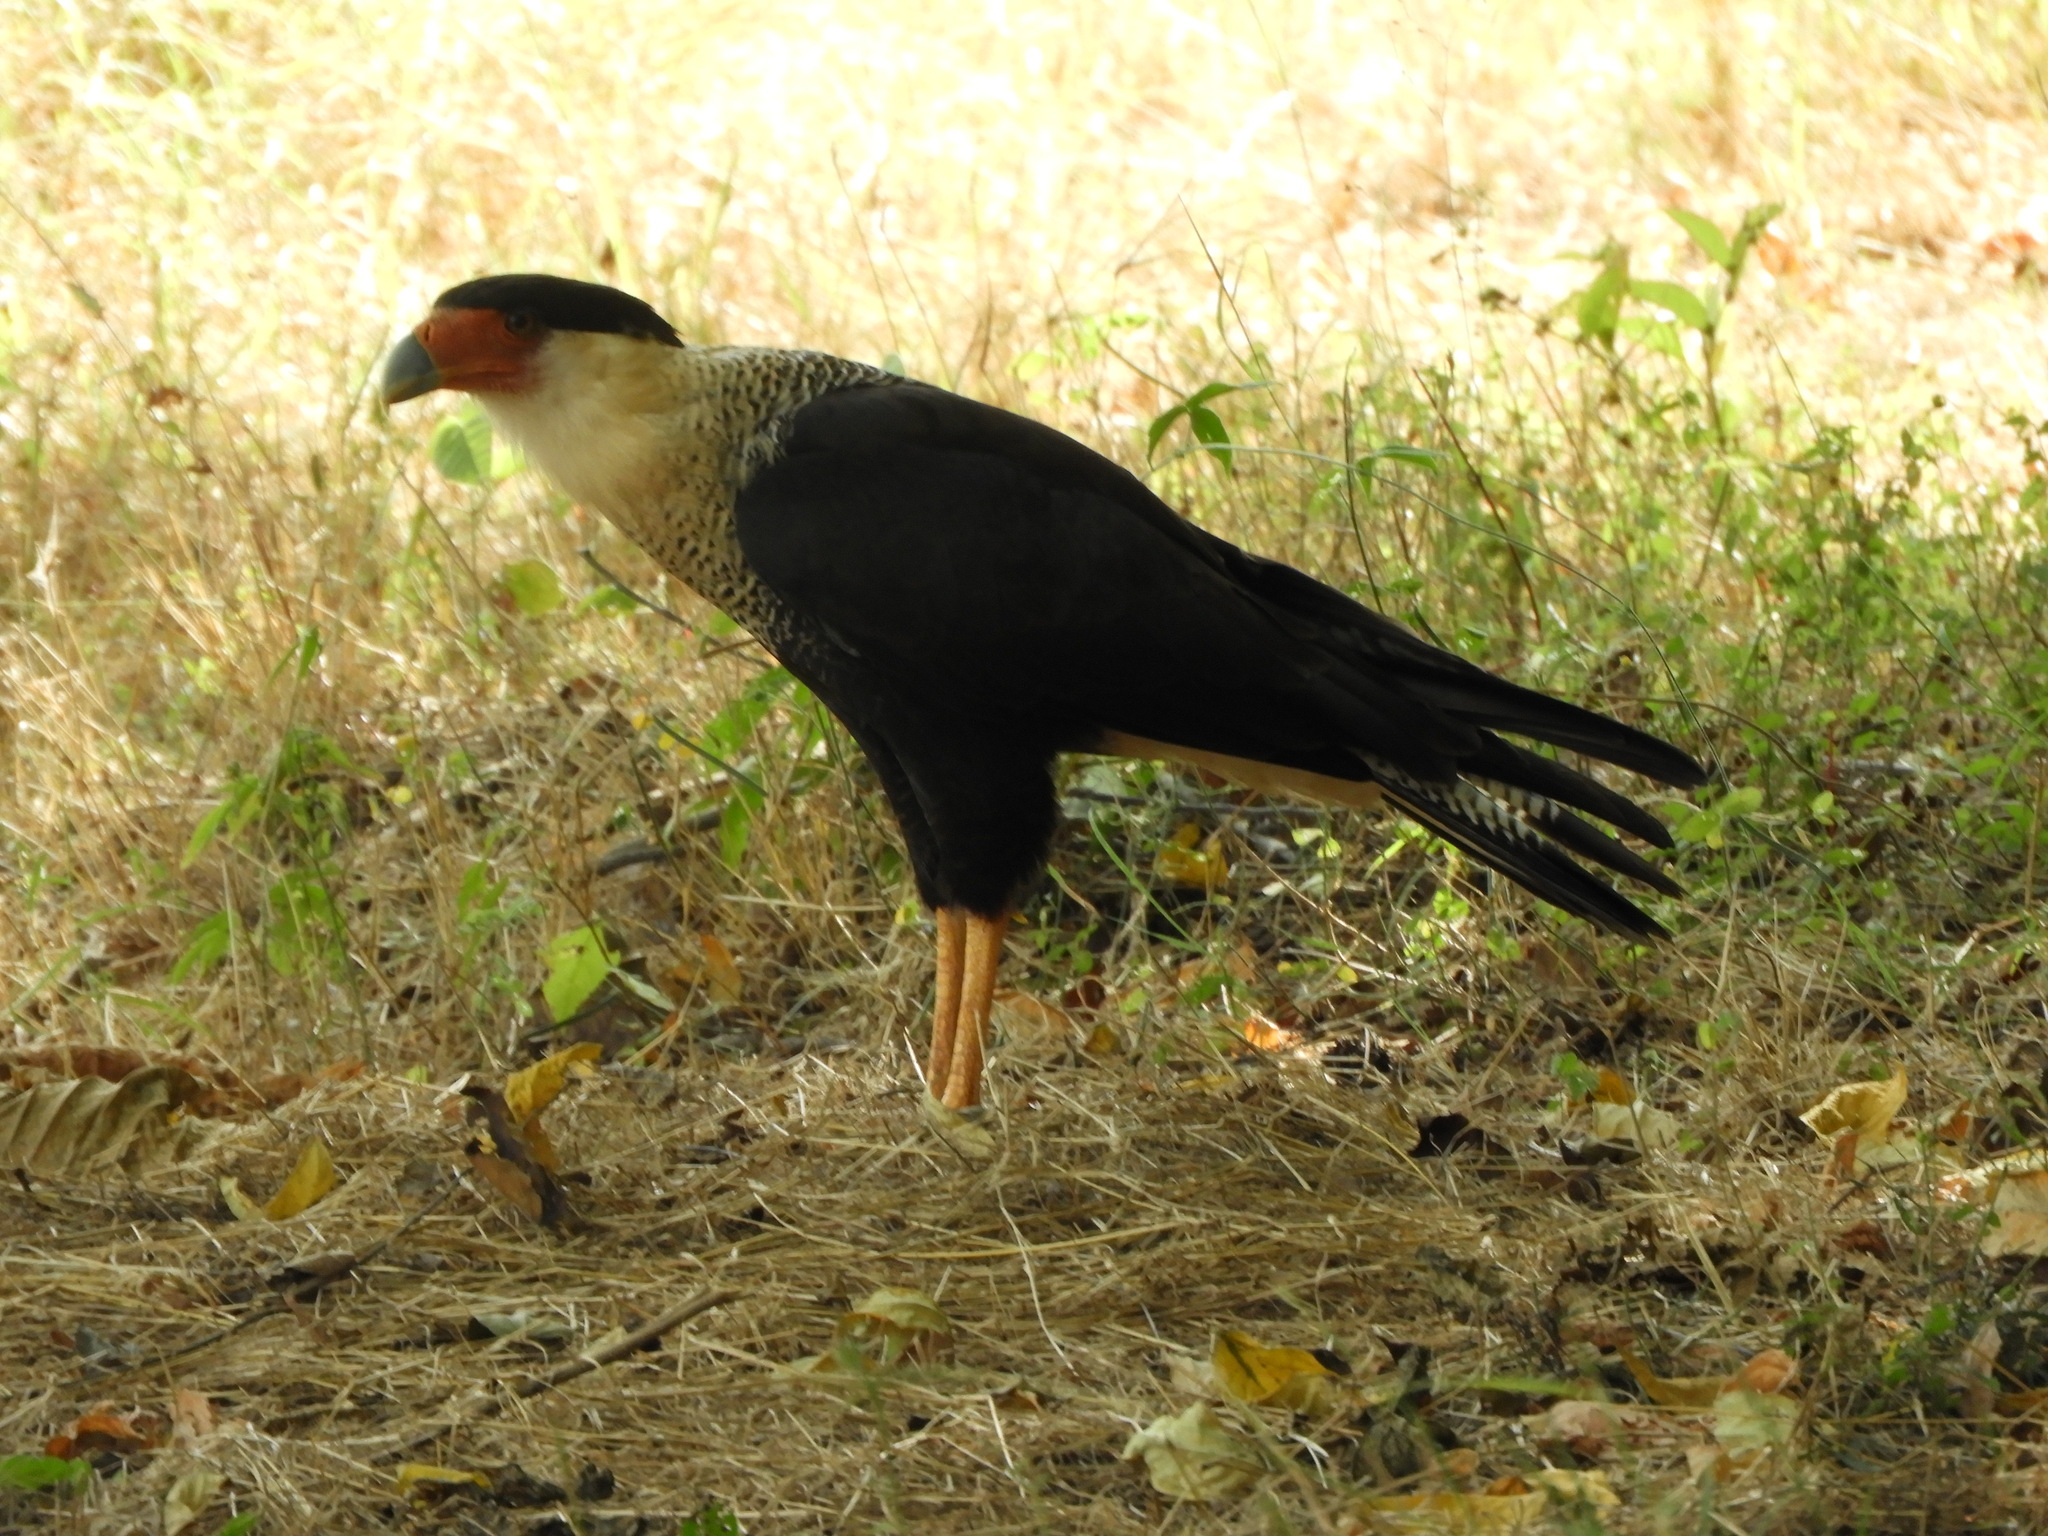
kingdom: Animalia
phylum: Chordata
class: Aves
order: Falconiformes
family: Falconidae
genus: Caracara
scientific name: Caracara plancus
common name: Southern caracara
